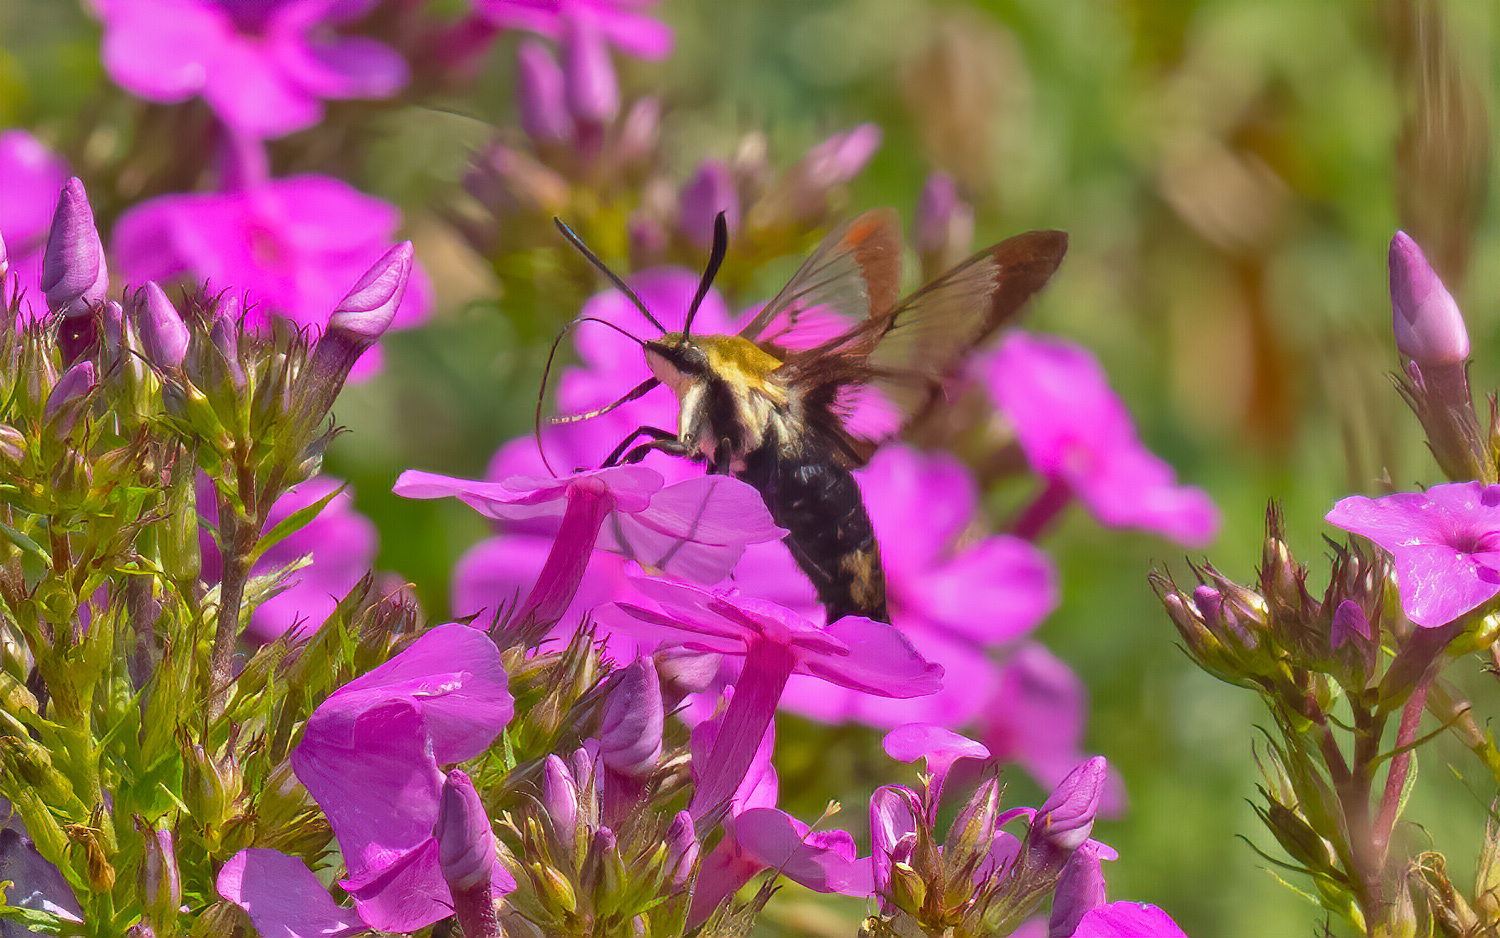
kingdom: Animalia
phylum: Arthropoda
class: Insecta
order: Lepidoptera
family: Sphingidae
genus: Hemaris
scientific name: Hemaris diffinis
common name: Bumblebee moth
